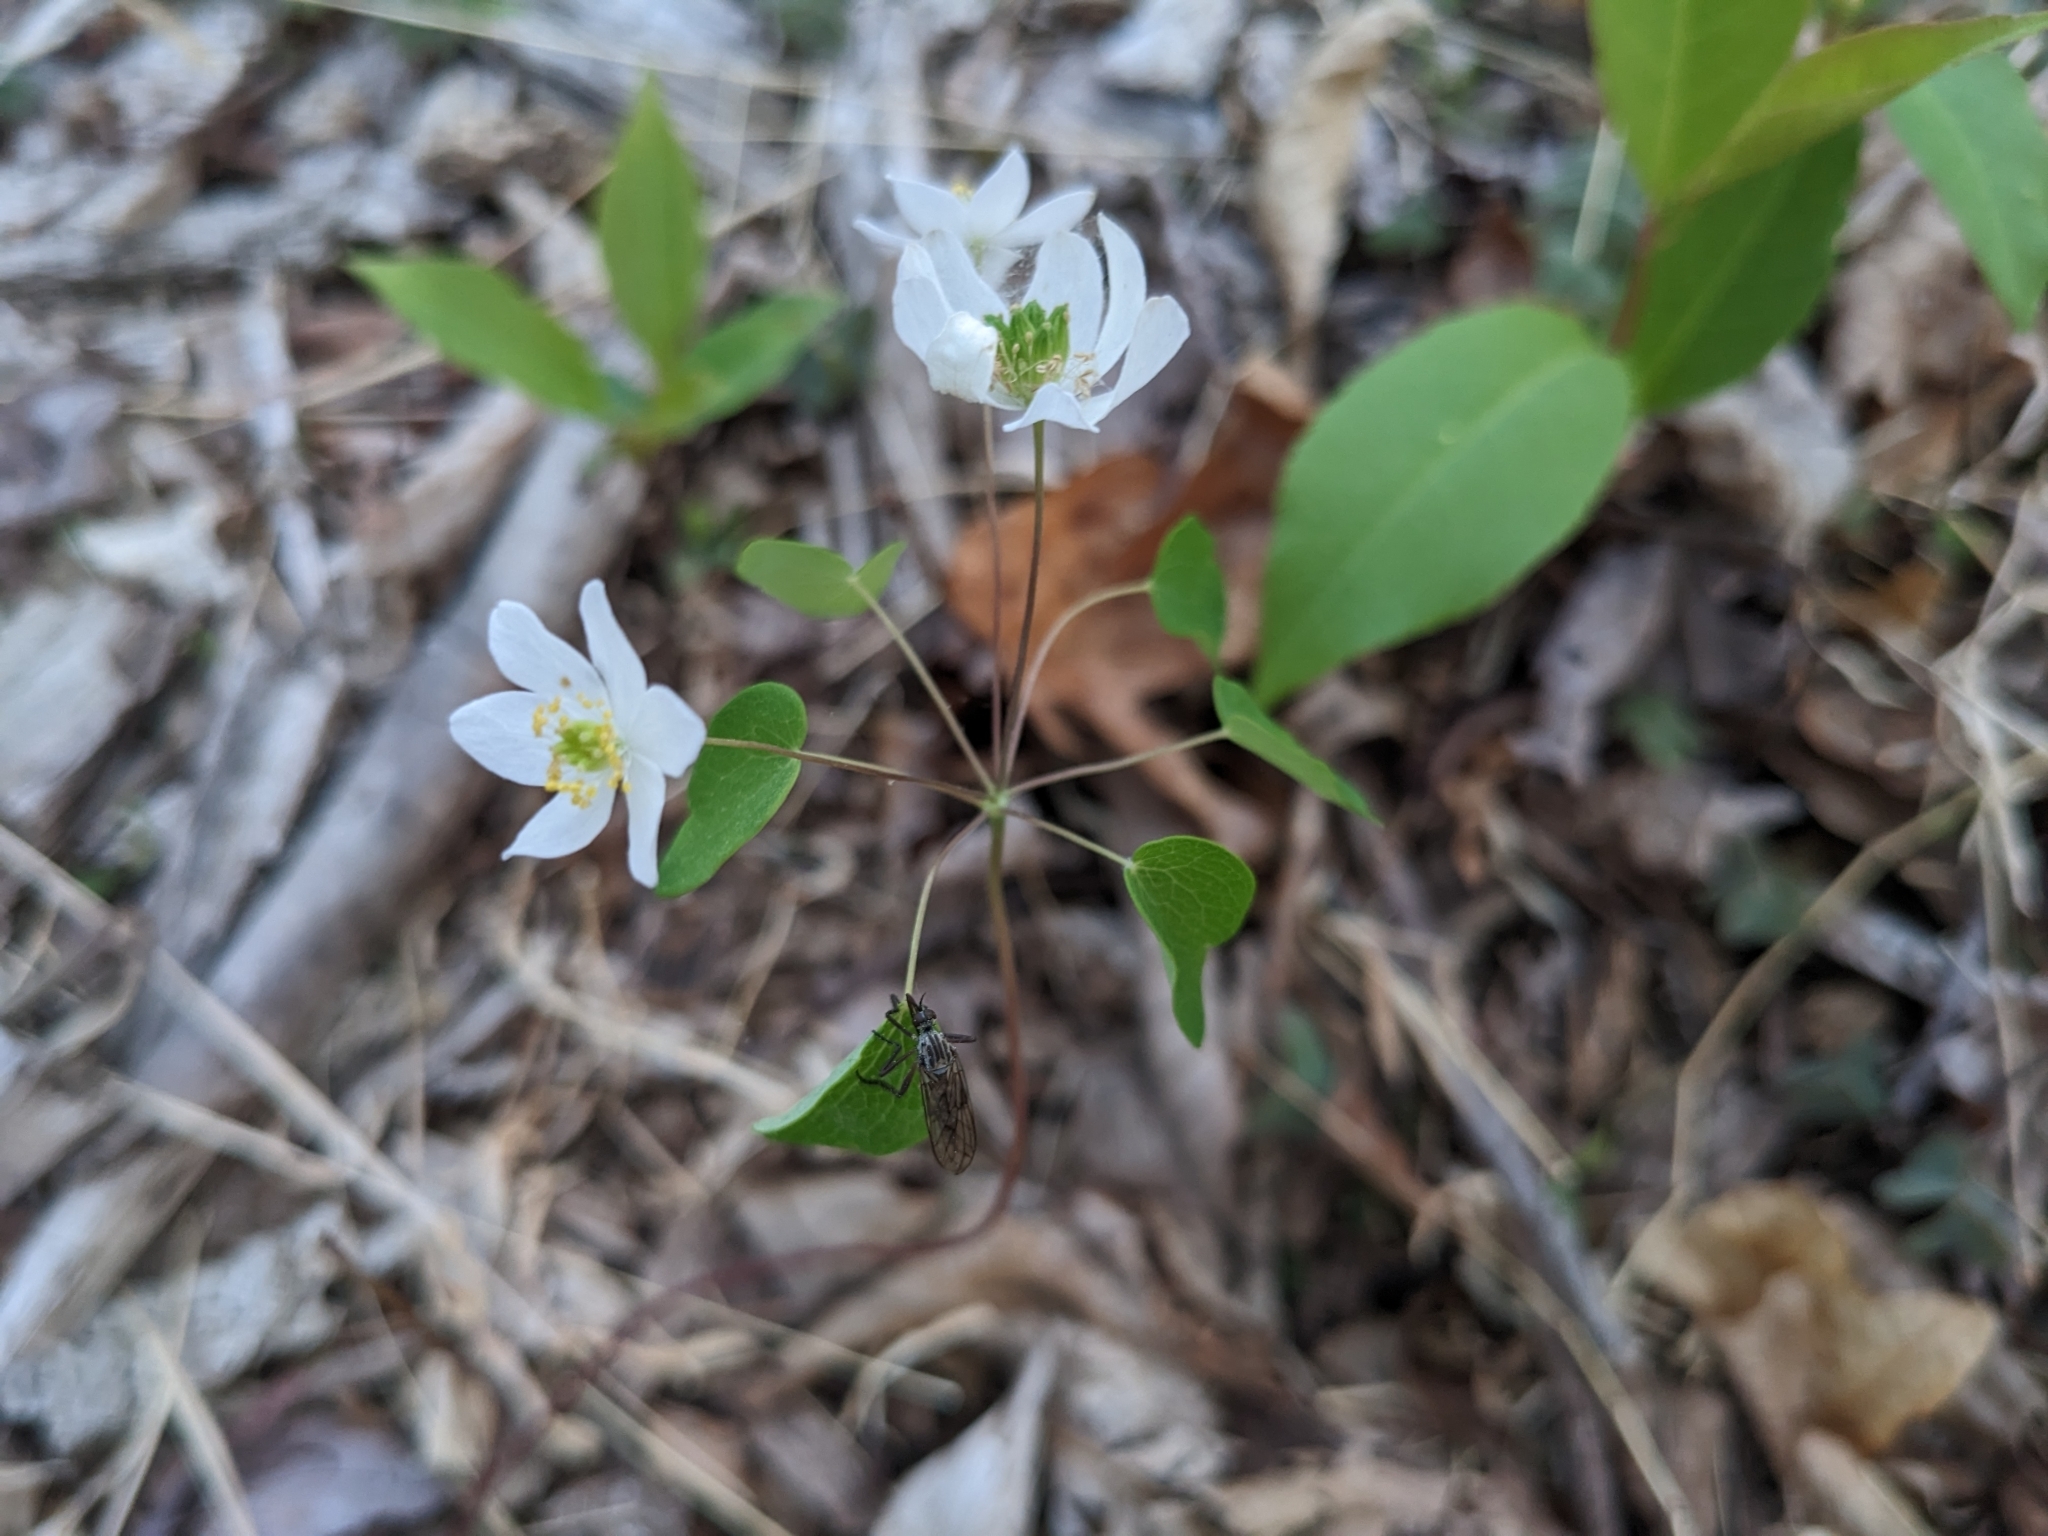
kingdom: Plantae
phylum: Tracheophyta
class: Magnoliopsida
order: Ranunculales
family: Ranunculaceae
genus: Thalictrum
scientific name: Thalictrum thalictroides
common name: Rue-anemone
